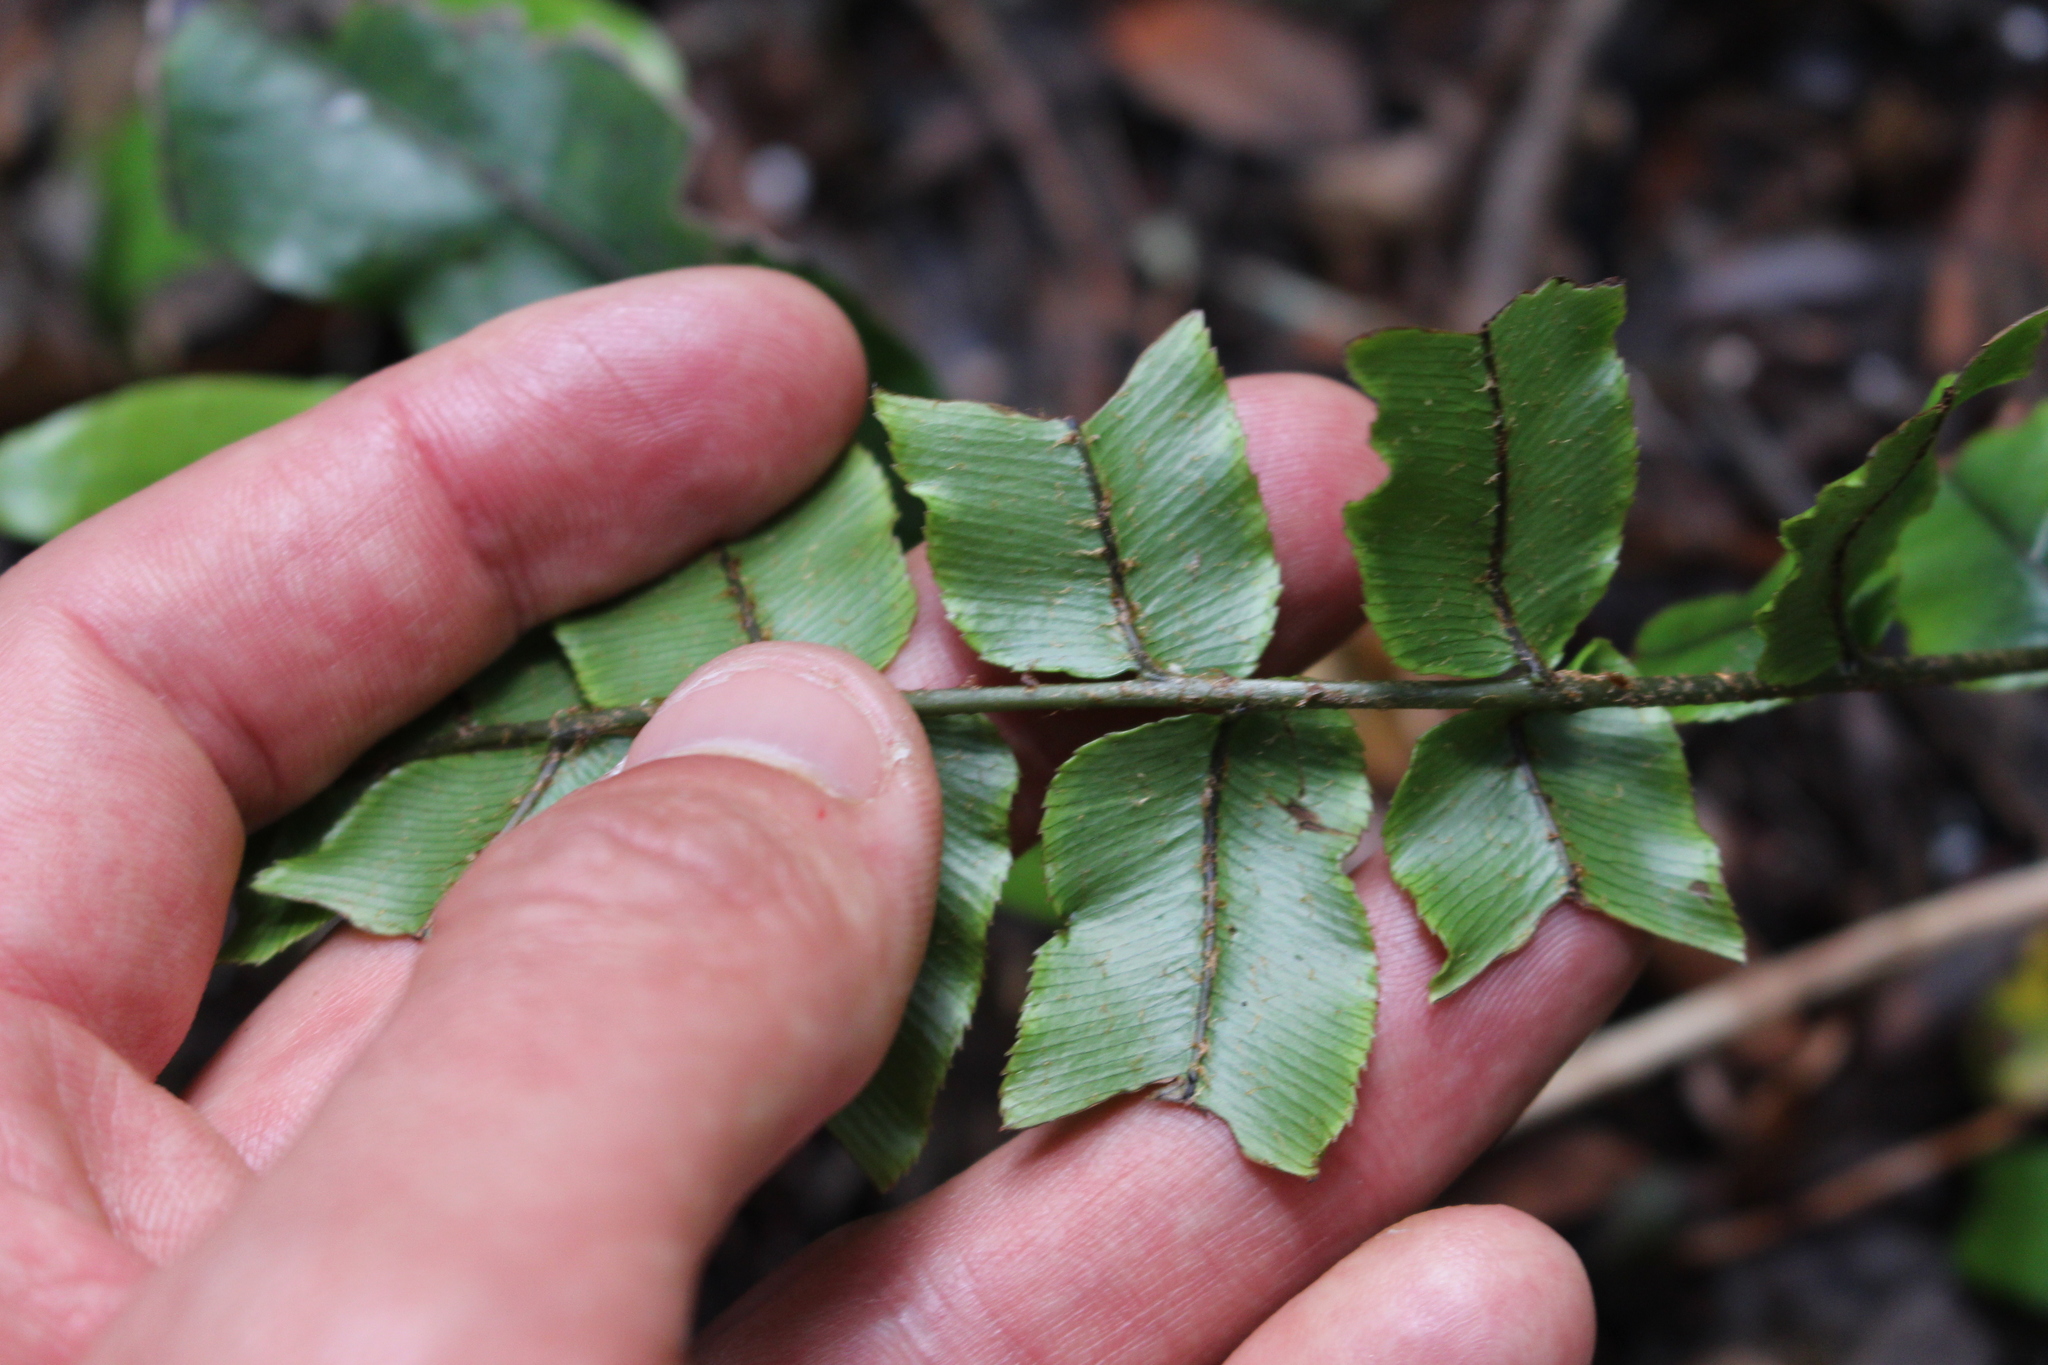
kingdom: Plantae
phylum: Tracheophyta
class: Polypodiopsida
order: Polypodiales
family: Blechnaceae
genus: Parablechnum
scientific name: Parablechnum procerum
